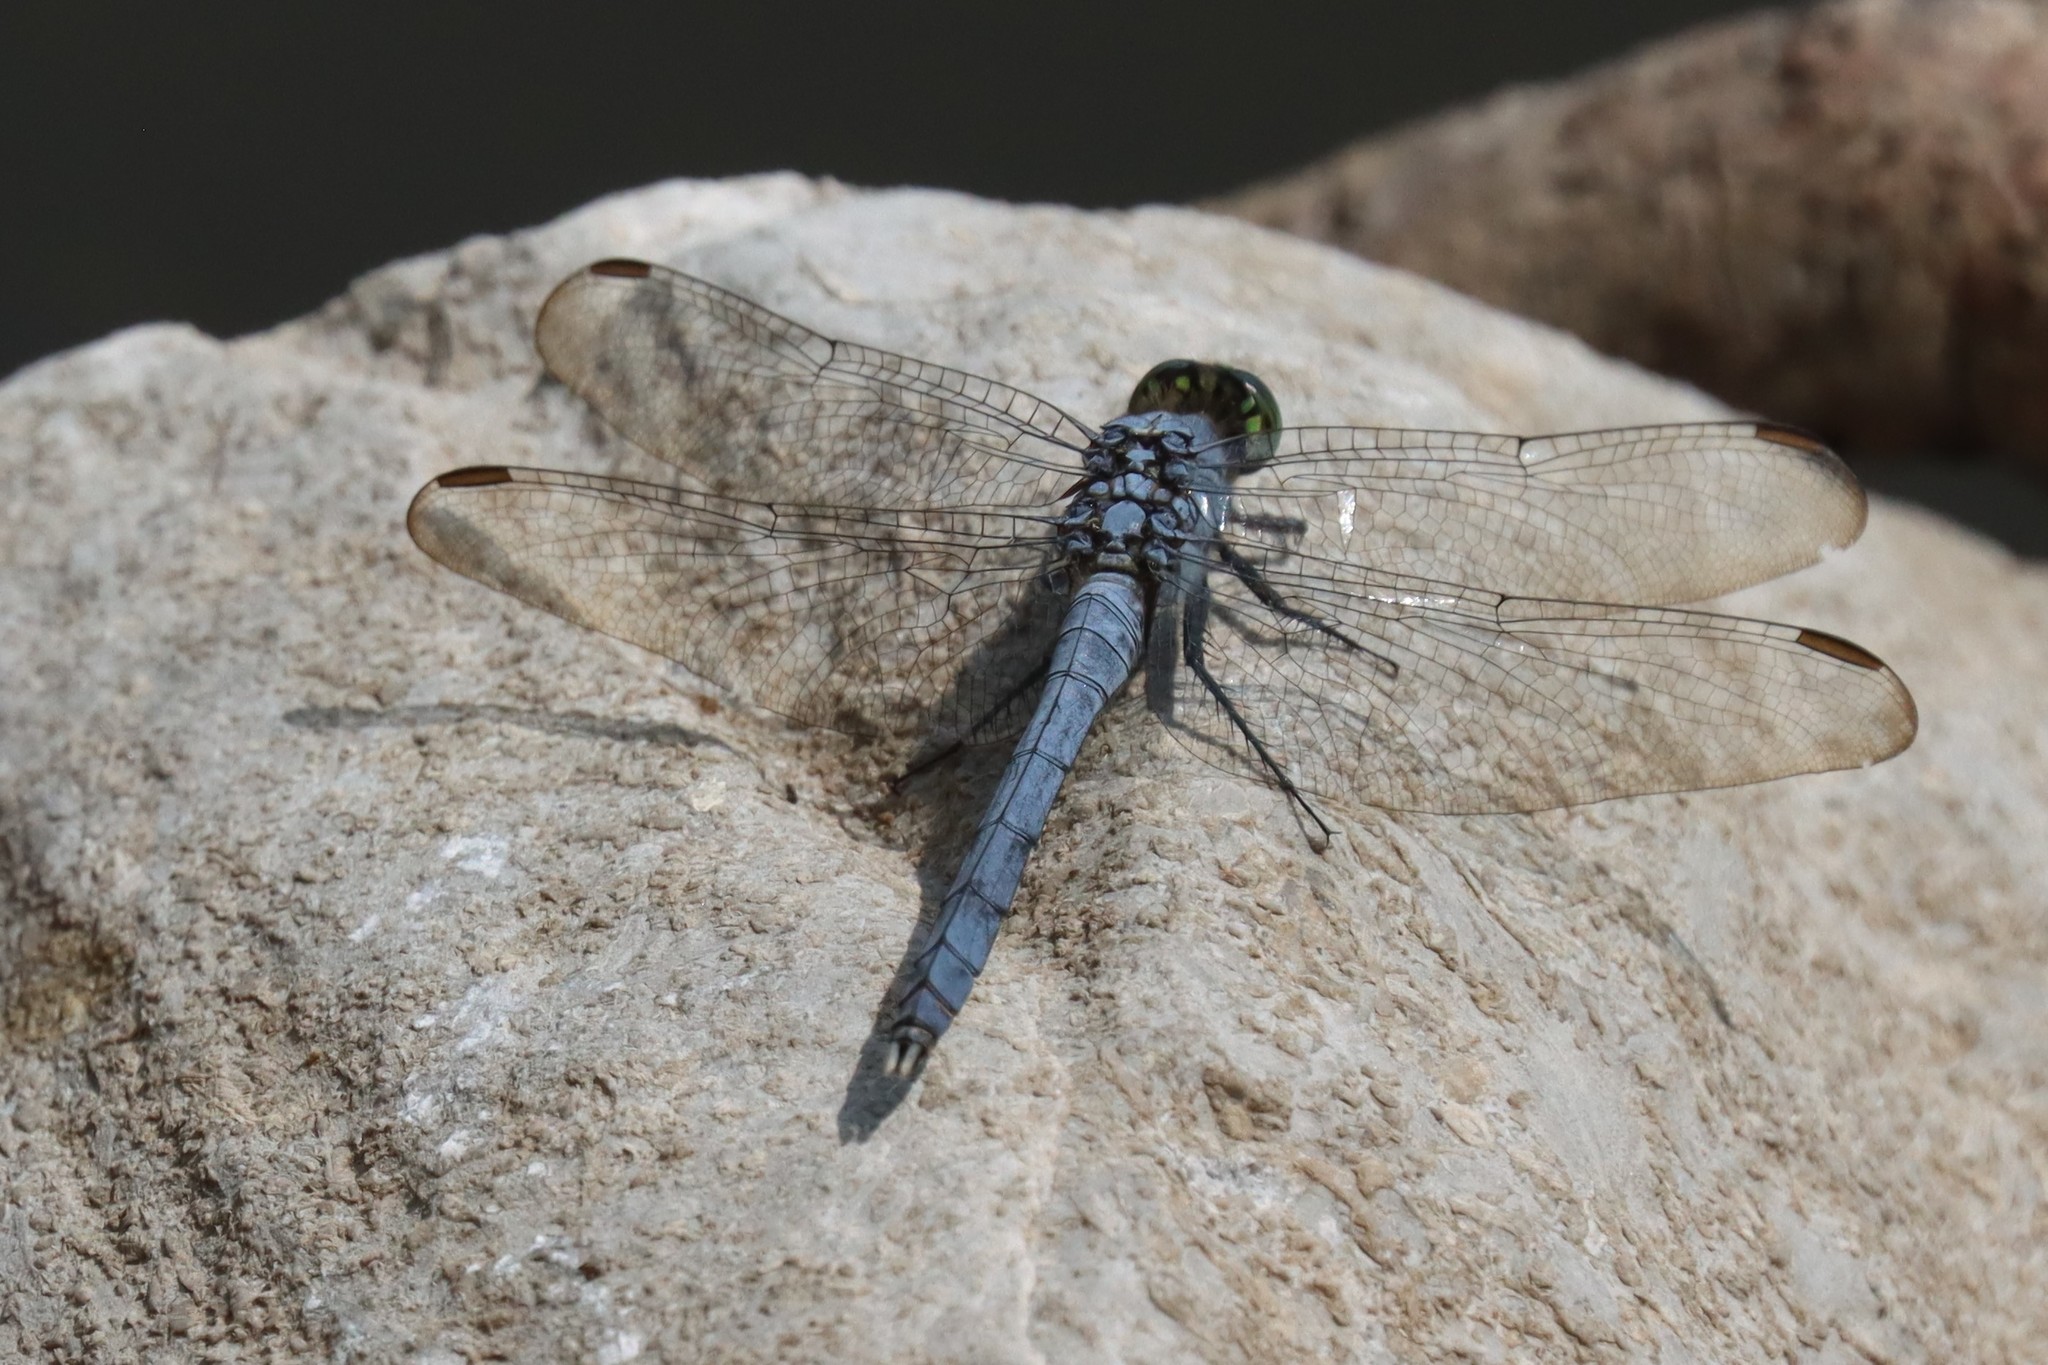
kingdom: Animalia
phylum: Arthropoda
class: Insecta
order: Odonata
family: Libellulidae
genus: Erythemis
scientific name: Erythemis simplicicollis
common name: Eastern pondhawk
